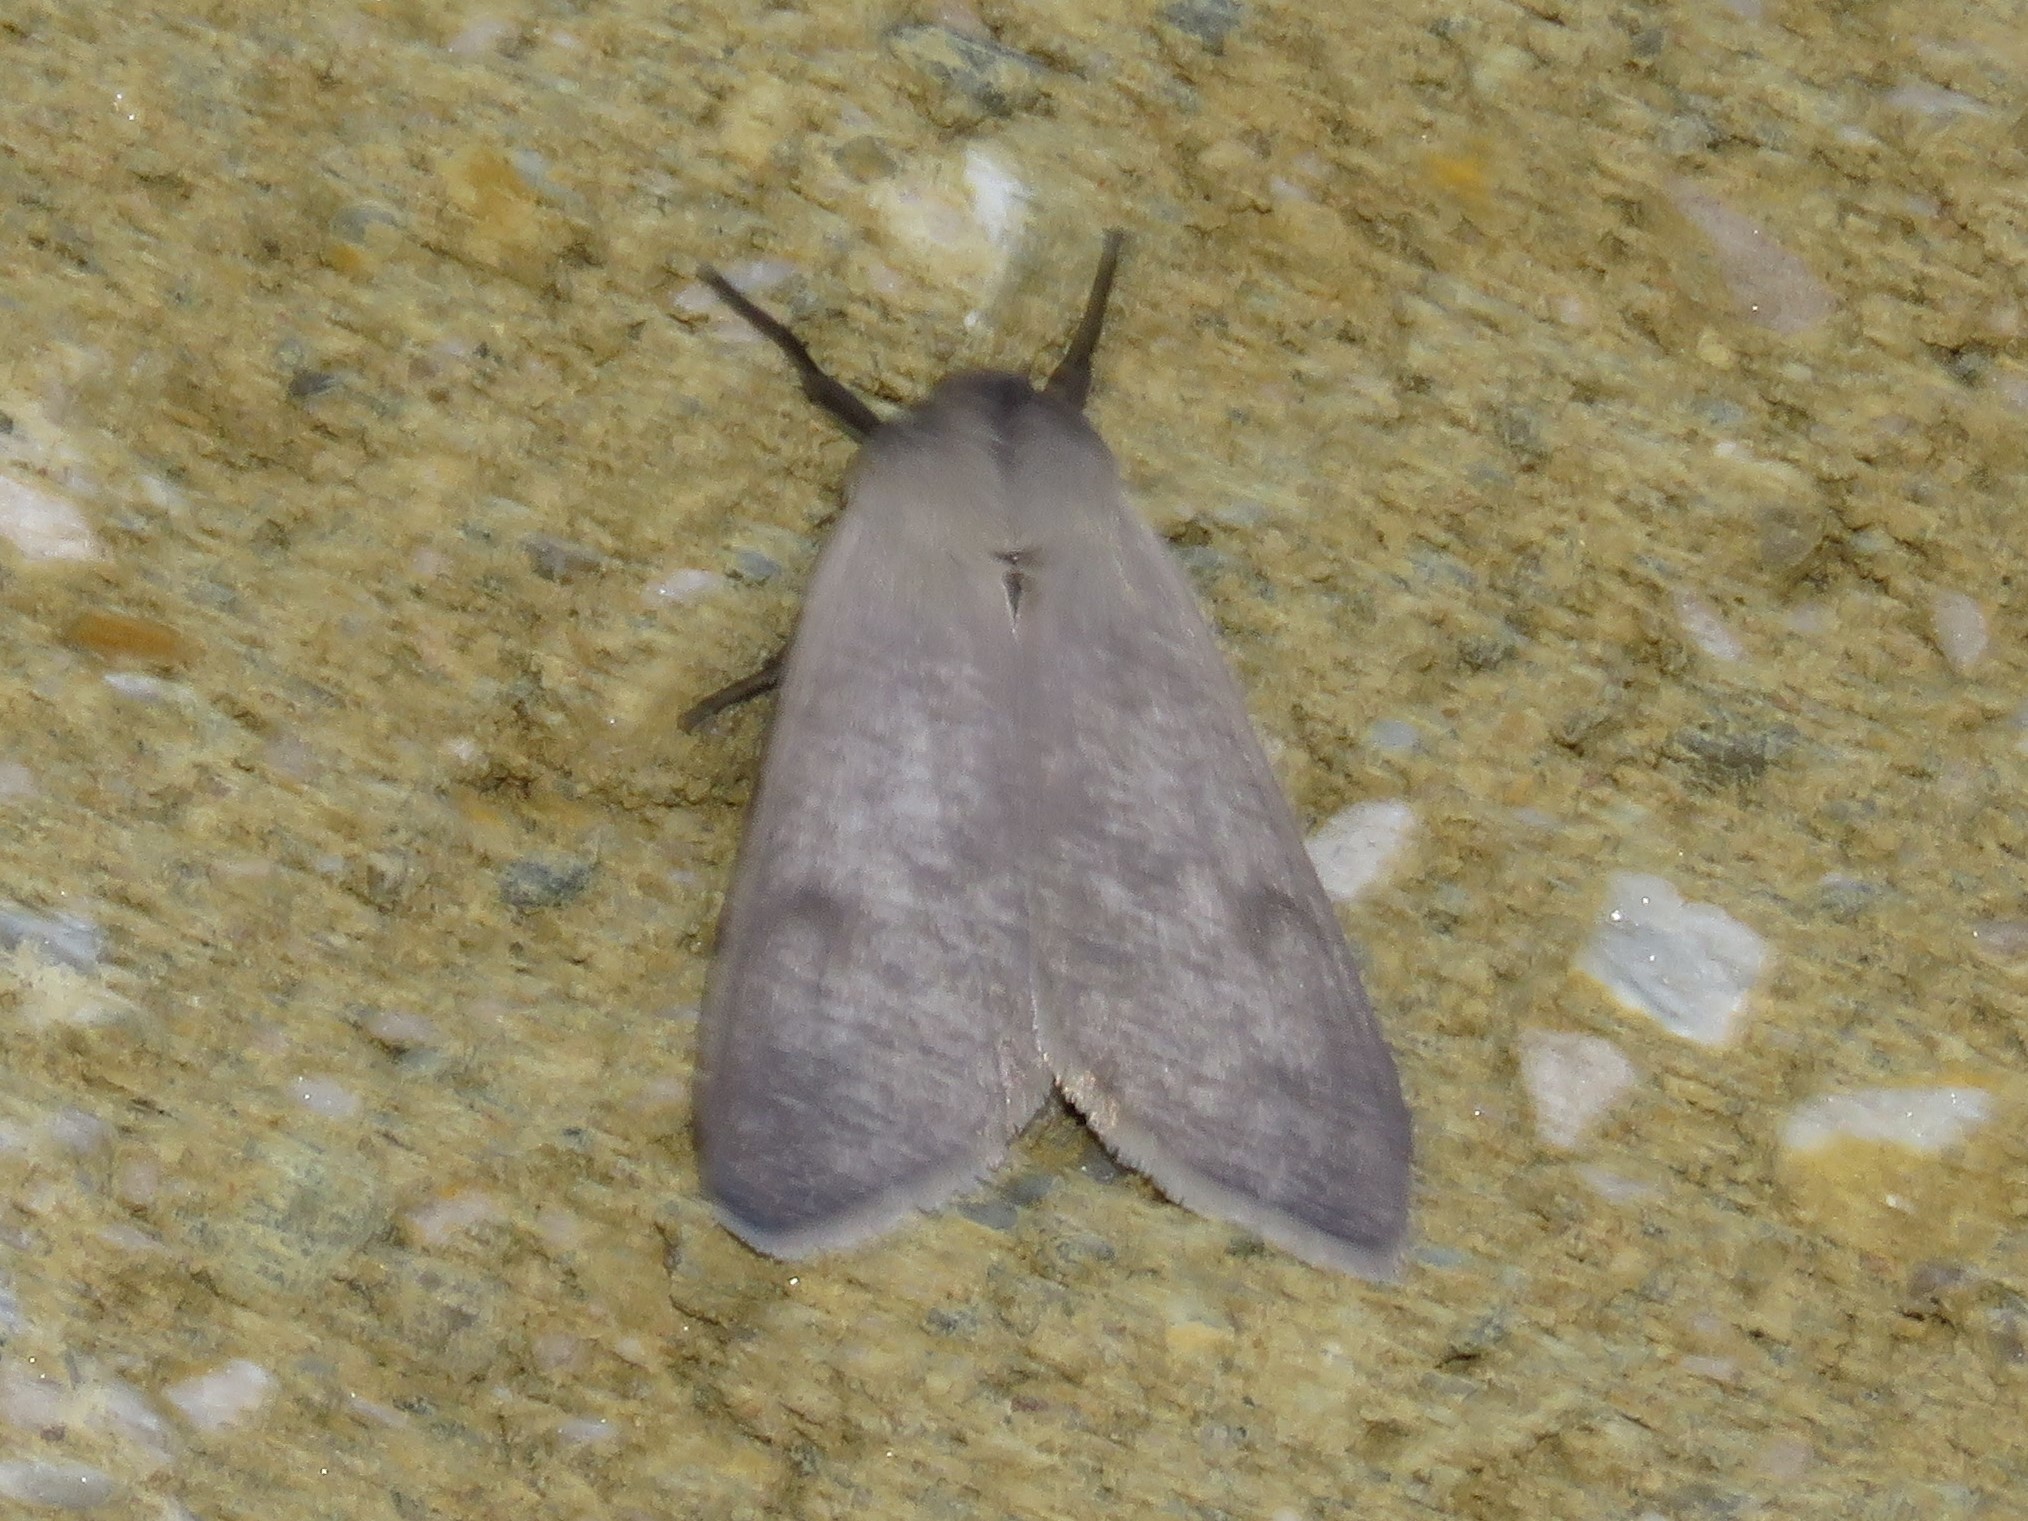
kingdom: Animalia
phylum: Arthropoda
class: Insecta
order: Lepidoptera
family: Erebidae
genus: Euchaetes
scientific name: Euchaetes egle
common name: Milkweed tussock moth
